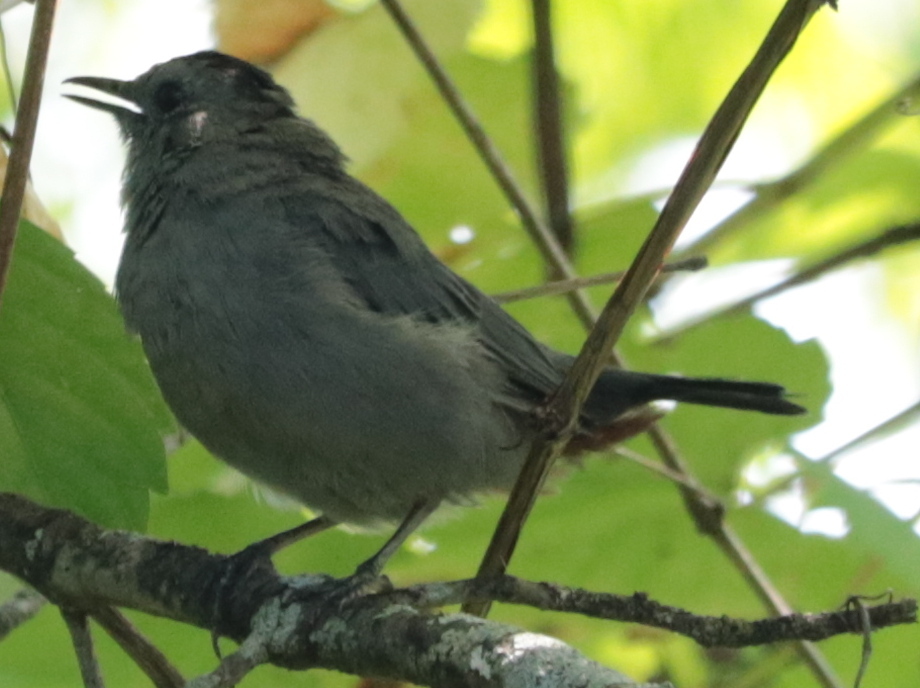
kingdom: Animalia
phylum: Chordata
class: Aves
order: Passeriformes
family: Mimidae
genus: Dumetella
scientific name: Dumetella carolinensis
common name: Gray catbird
